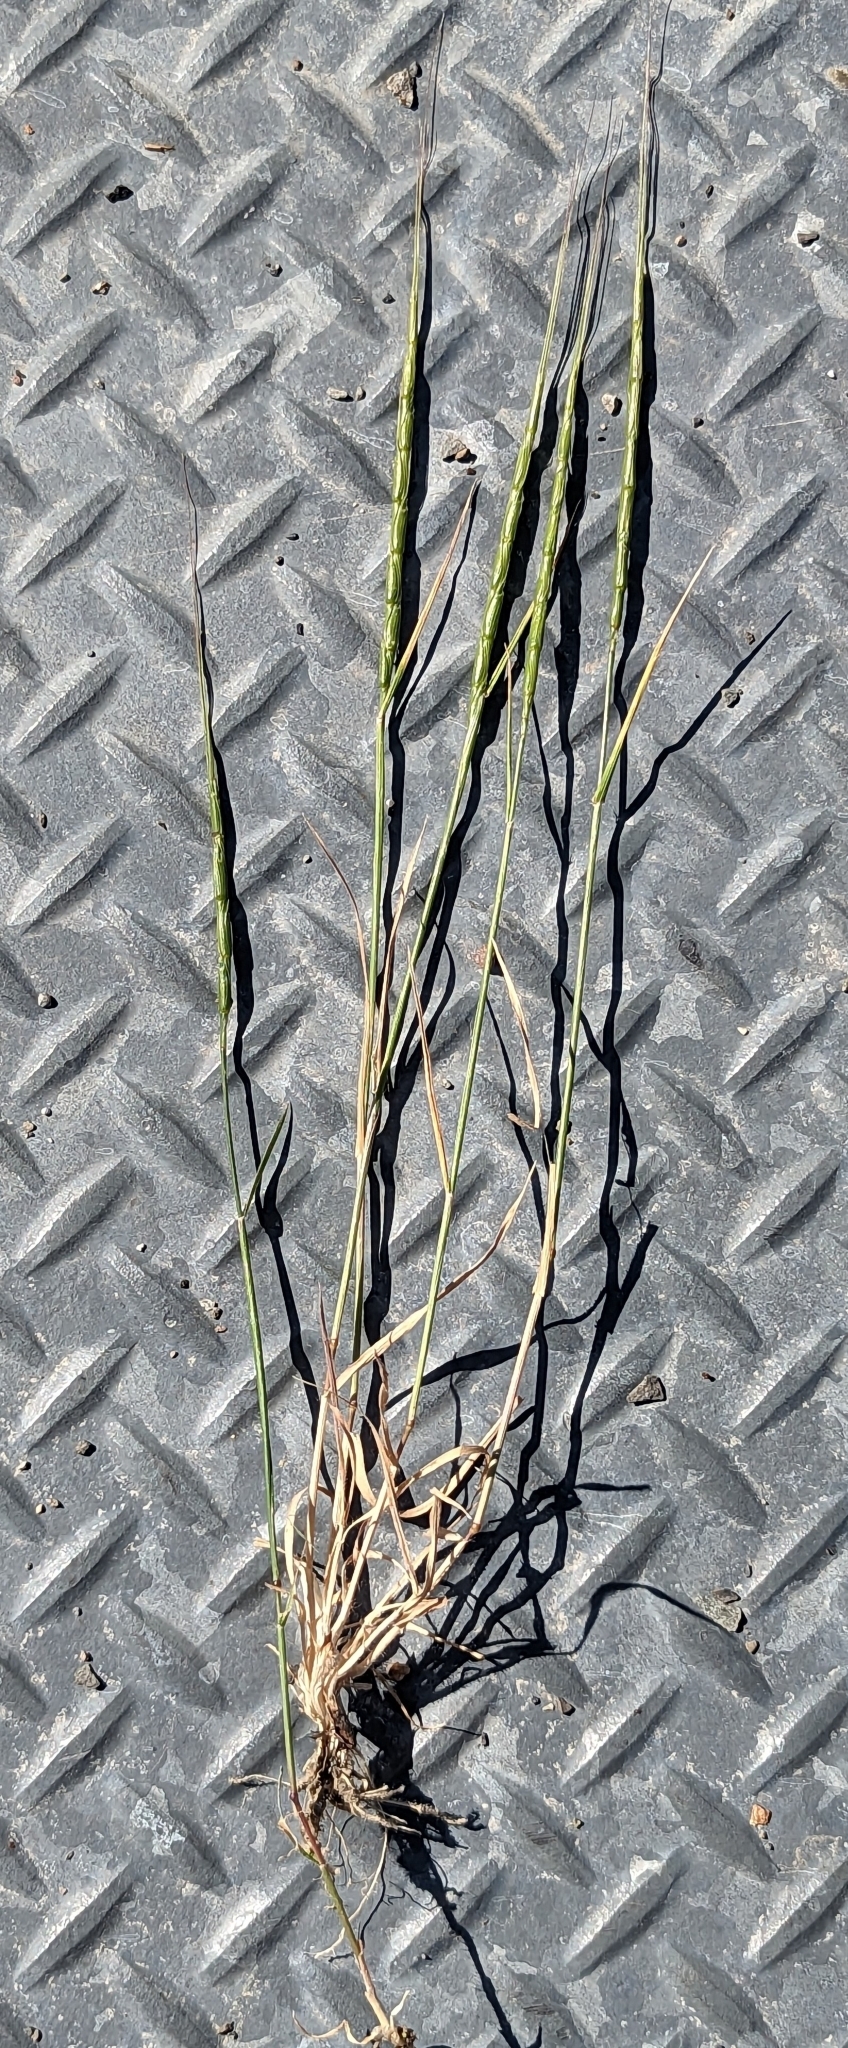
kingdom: Plantae
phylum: Tracheophyta
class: Liliopsida
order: Poales
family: Poaceae
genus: Aegilops
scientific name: Aegilops cylindrica
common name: Jointed goatgrass
